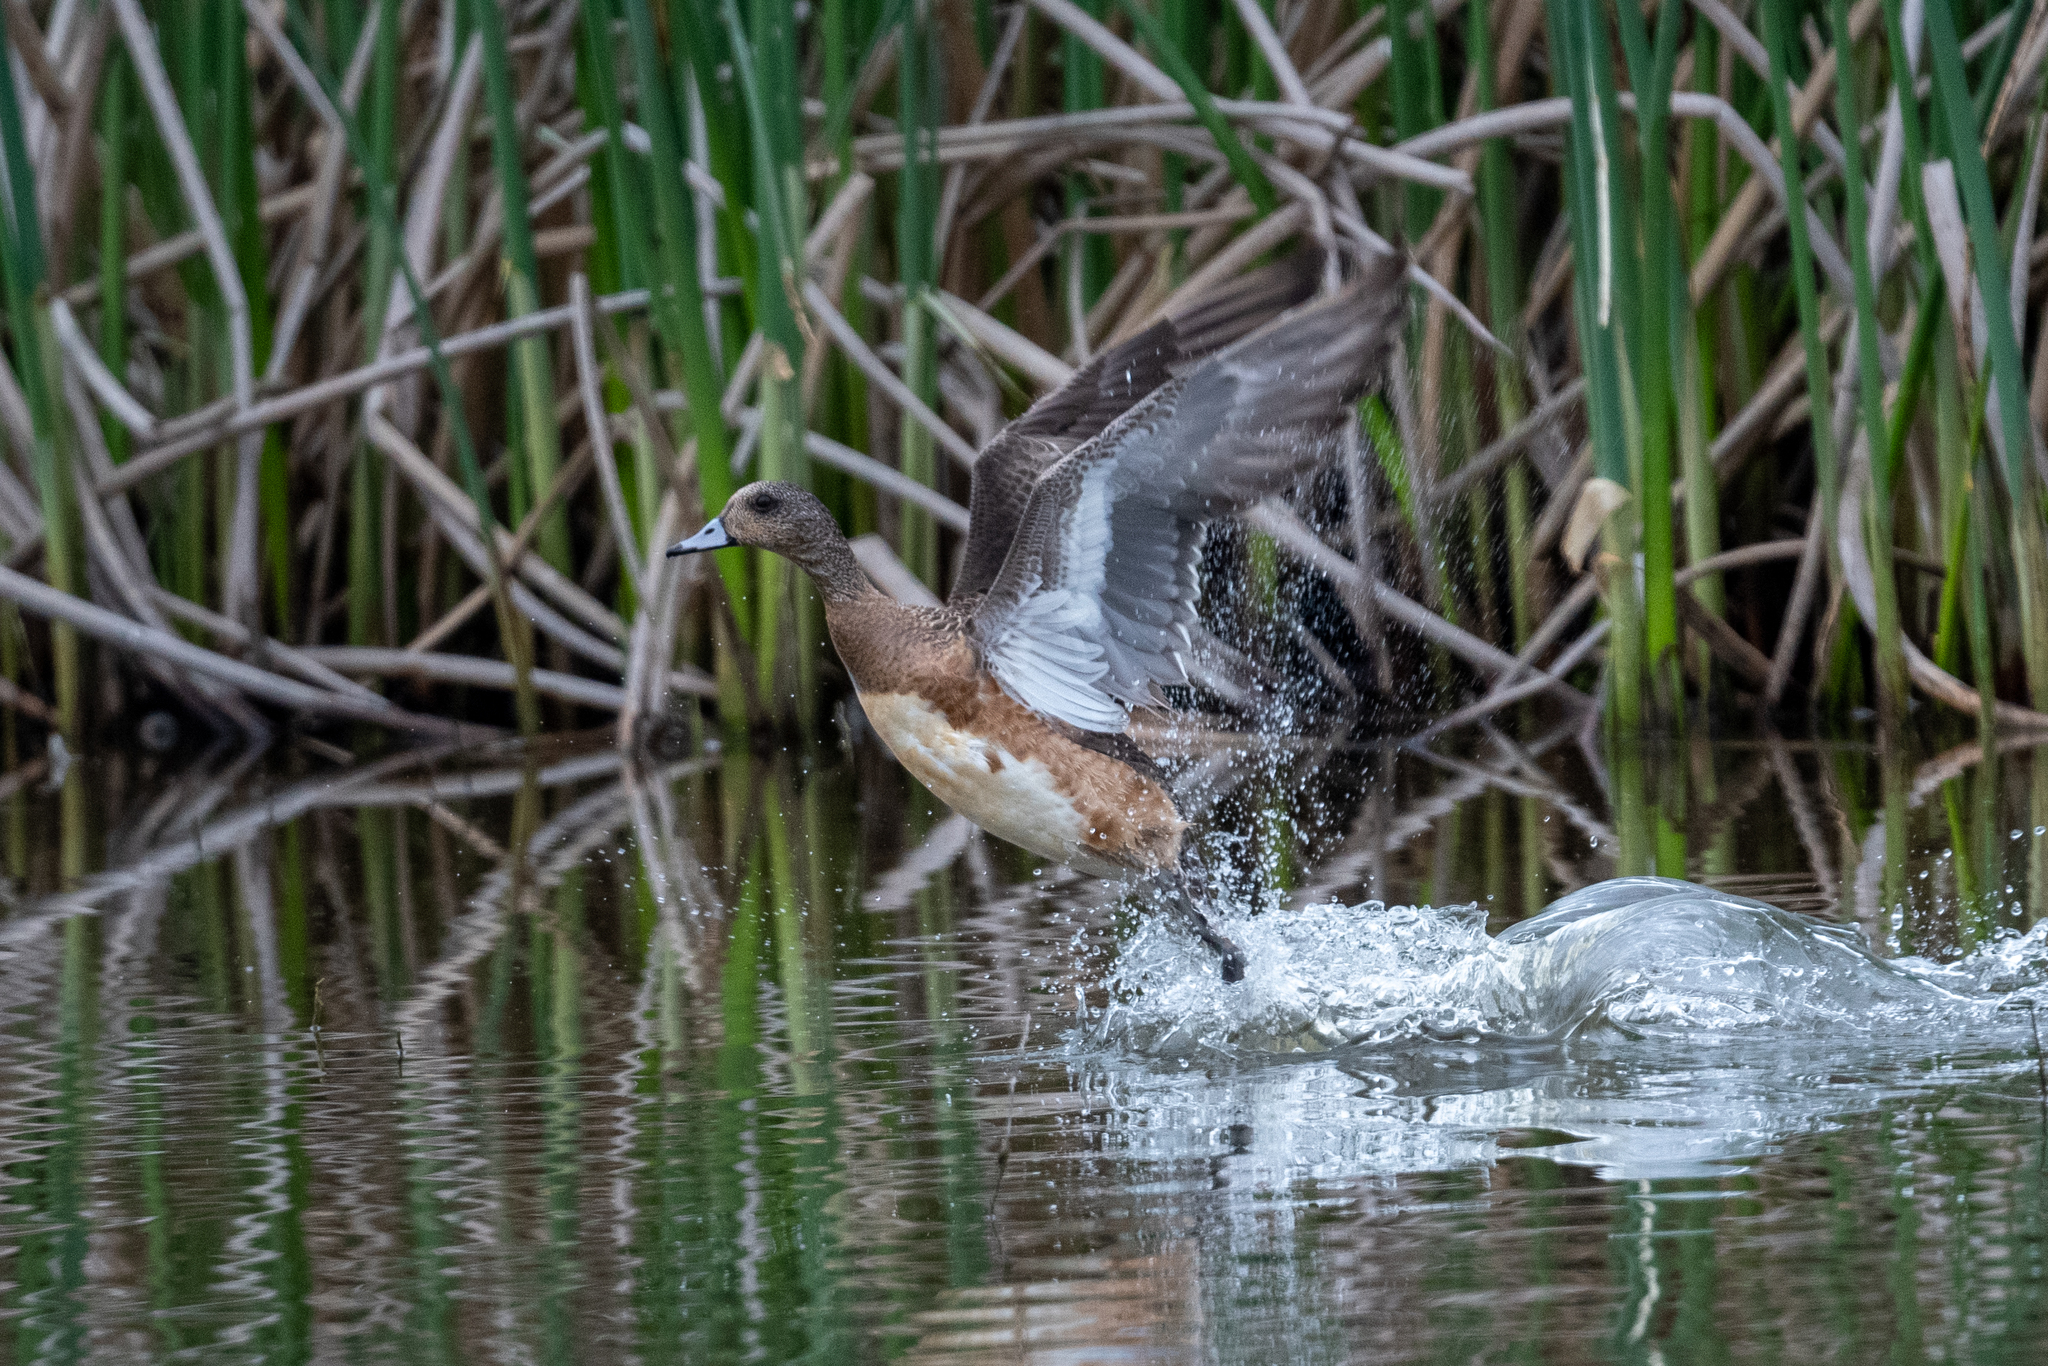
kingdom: Animalia
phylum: Chordata
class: Aves
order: Anseriformes
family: Anatidae
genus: Mareca
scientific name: Mareca americana
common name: American wigeon
